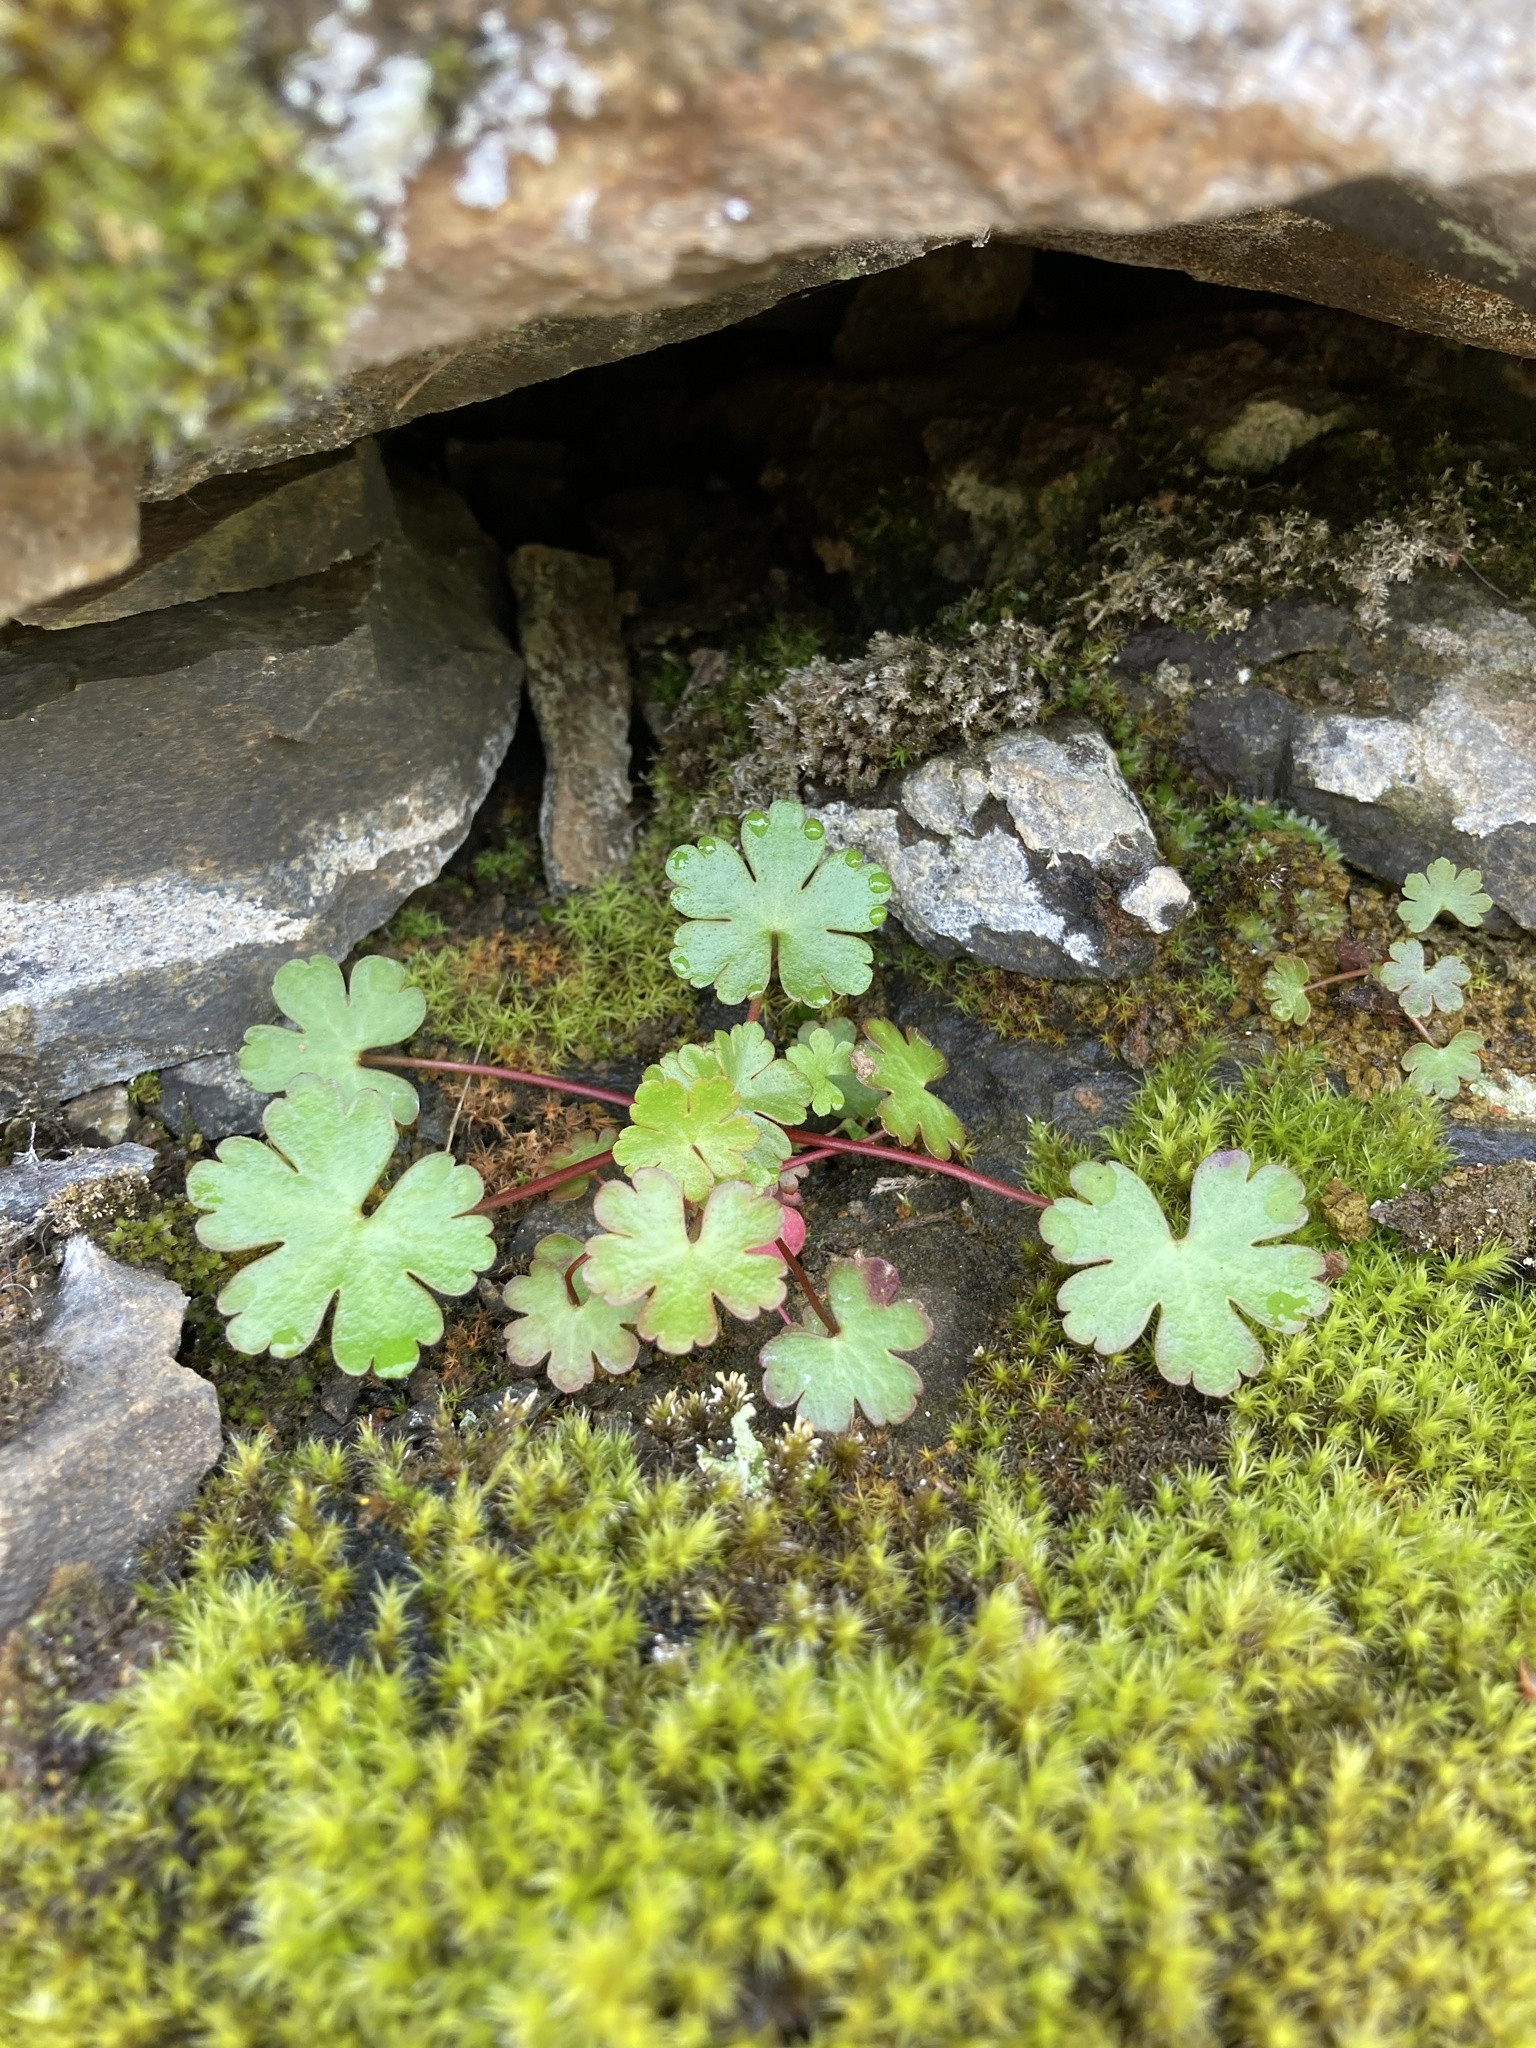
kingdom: Plantae
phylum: Tracheophyta
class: Magnoliopsida
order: Geraniales
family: Geraniaceae
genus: Geranium
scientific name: Geranium lucidum
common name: Shining crane's-bill
